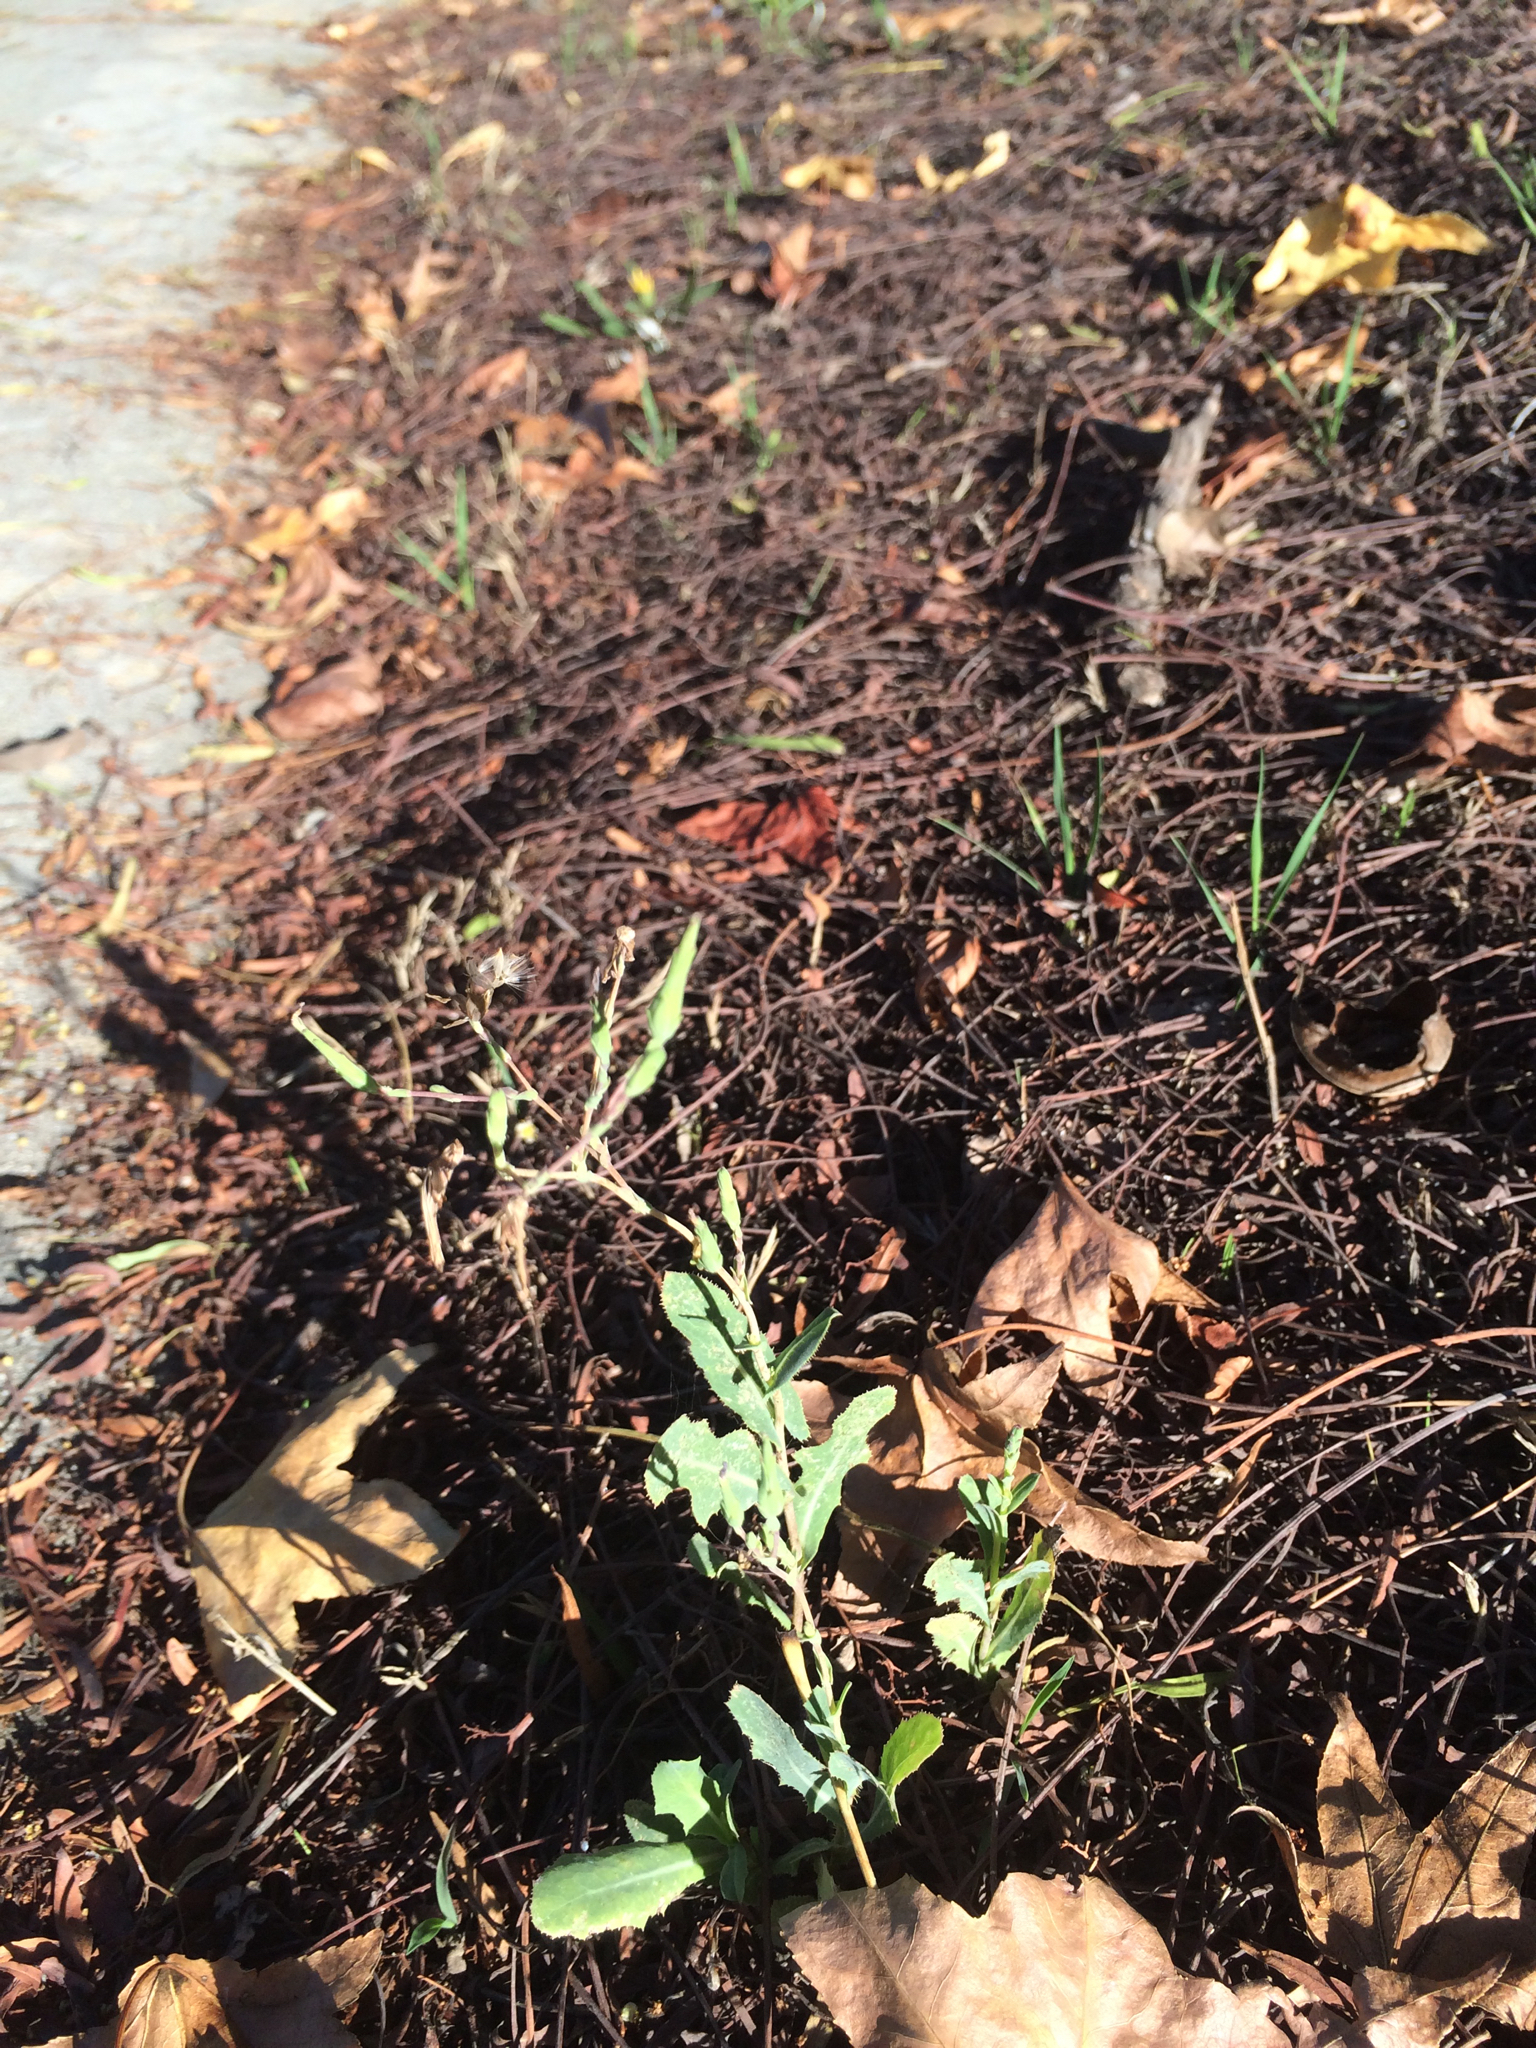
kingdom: Plantae
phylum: Tracheophyta
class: Magnoliopsida
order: Asterales
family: Asteraceae
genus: Lactuca
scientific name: Lactuca serriola
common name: Prickly lettuce
